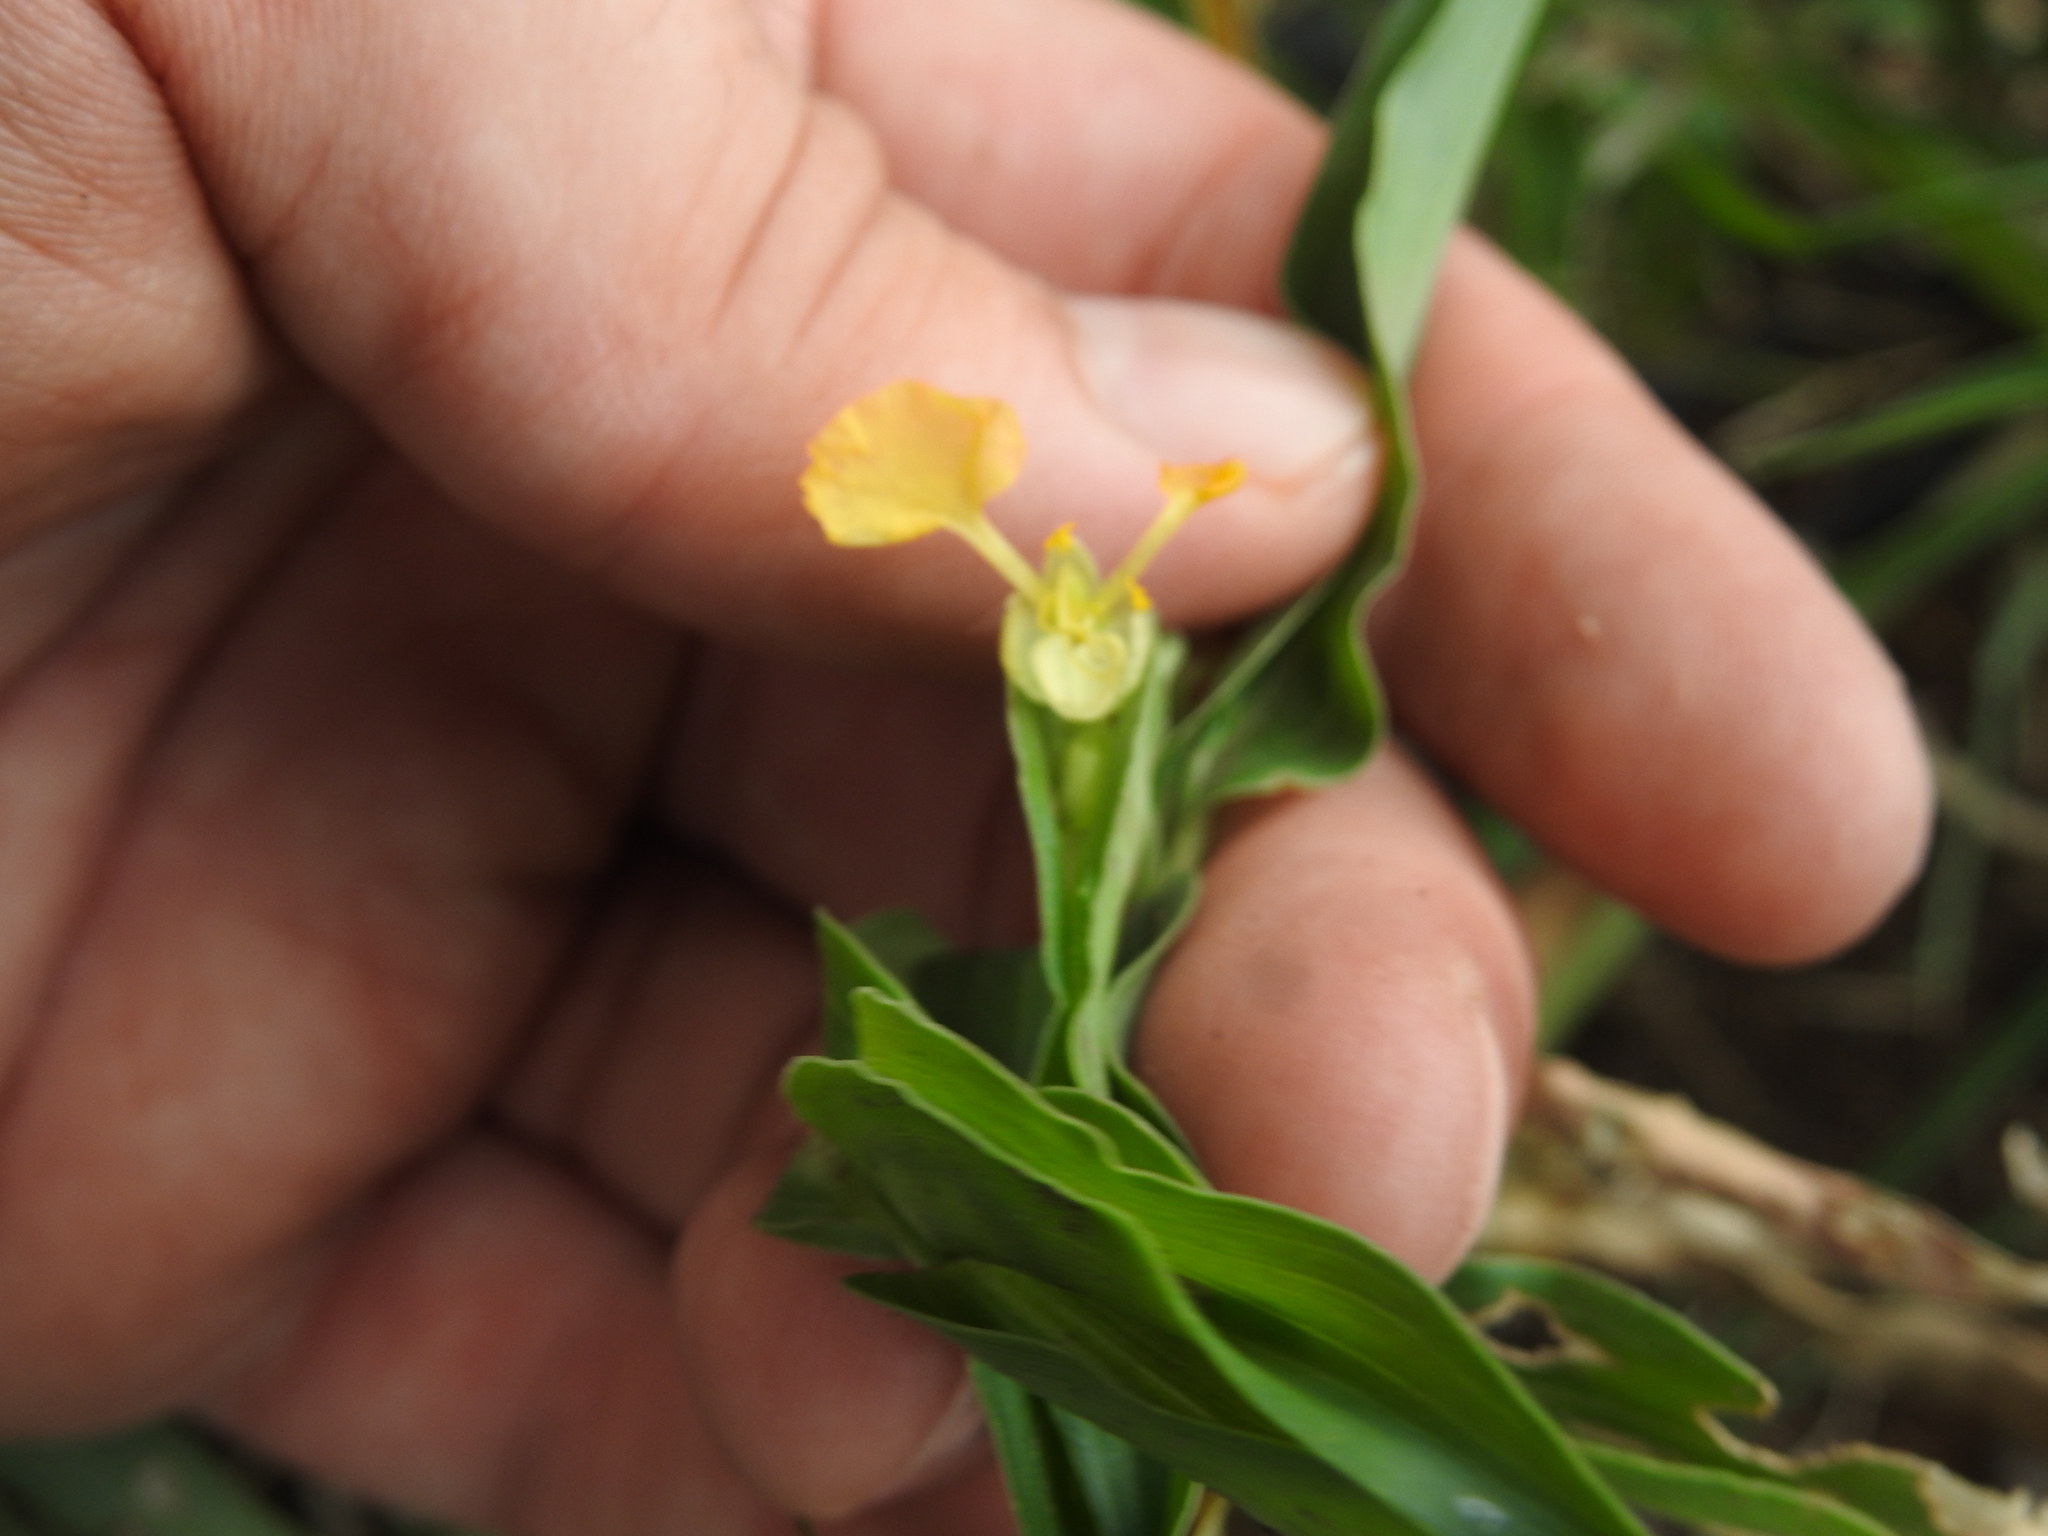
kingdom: Plantae
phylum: Tracheophyta
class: Liliopsida
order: Commelinales
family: Commelinaceae
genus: Commelina
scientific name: Commelina africana
